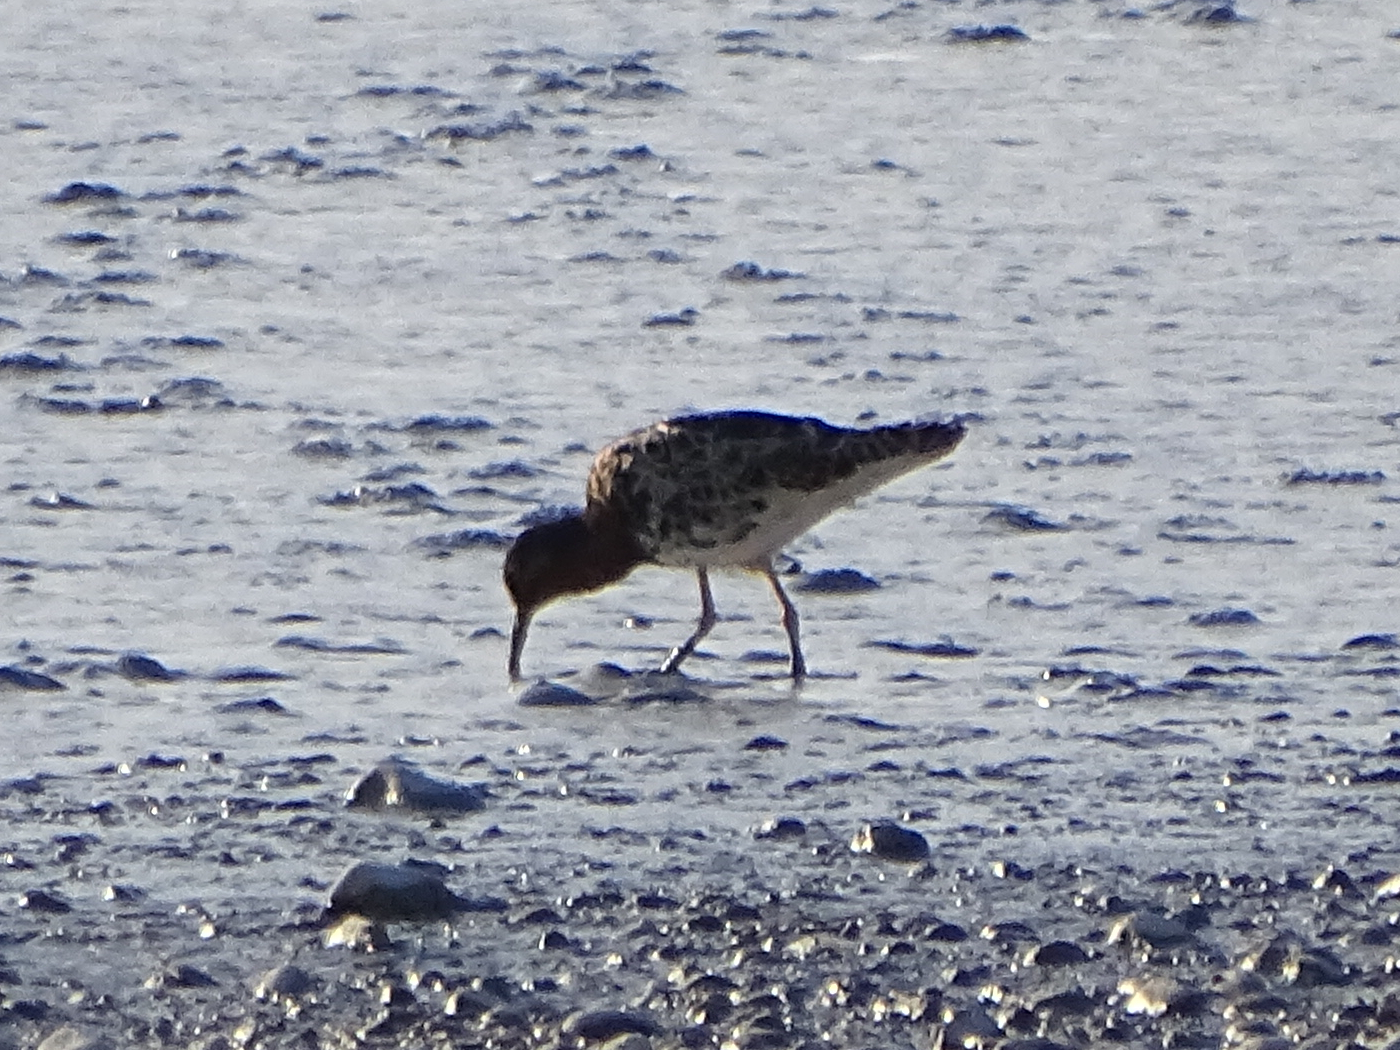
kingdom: Animalia
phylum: Chordata
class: Aves
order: Charadriiformes
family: Scolopacidae
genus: Calidris
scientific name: Calidris pugnax
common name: Ruff
